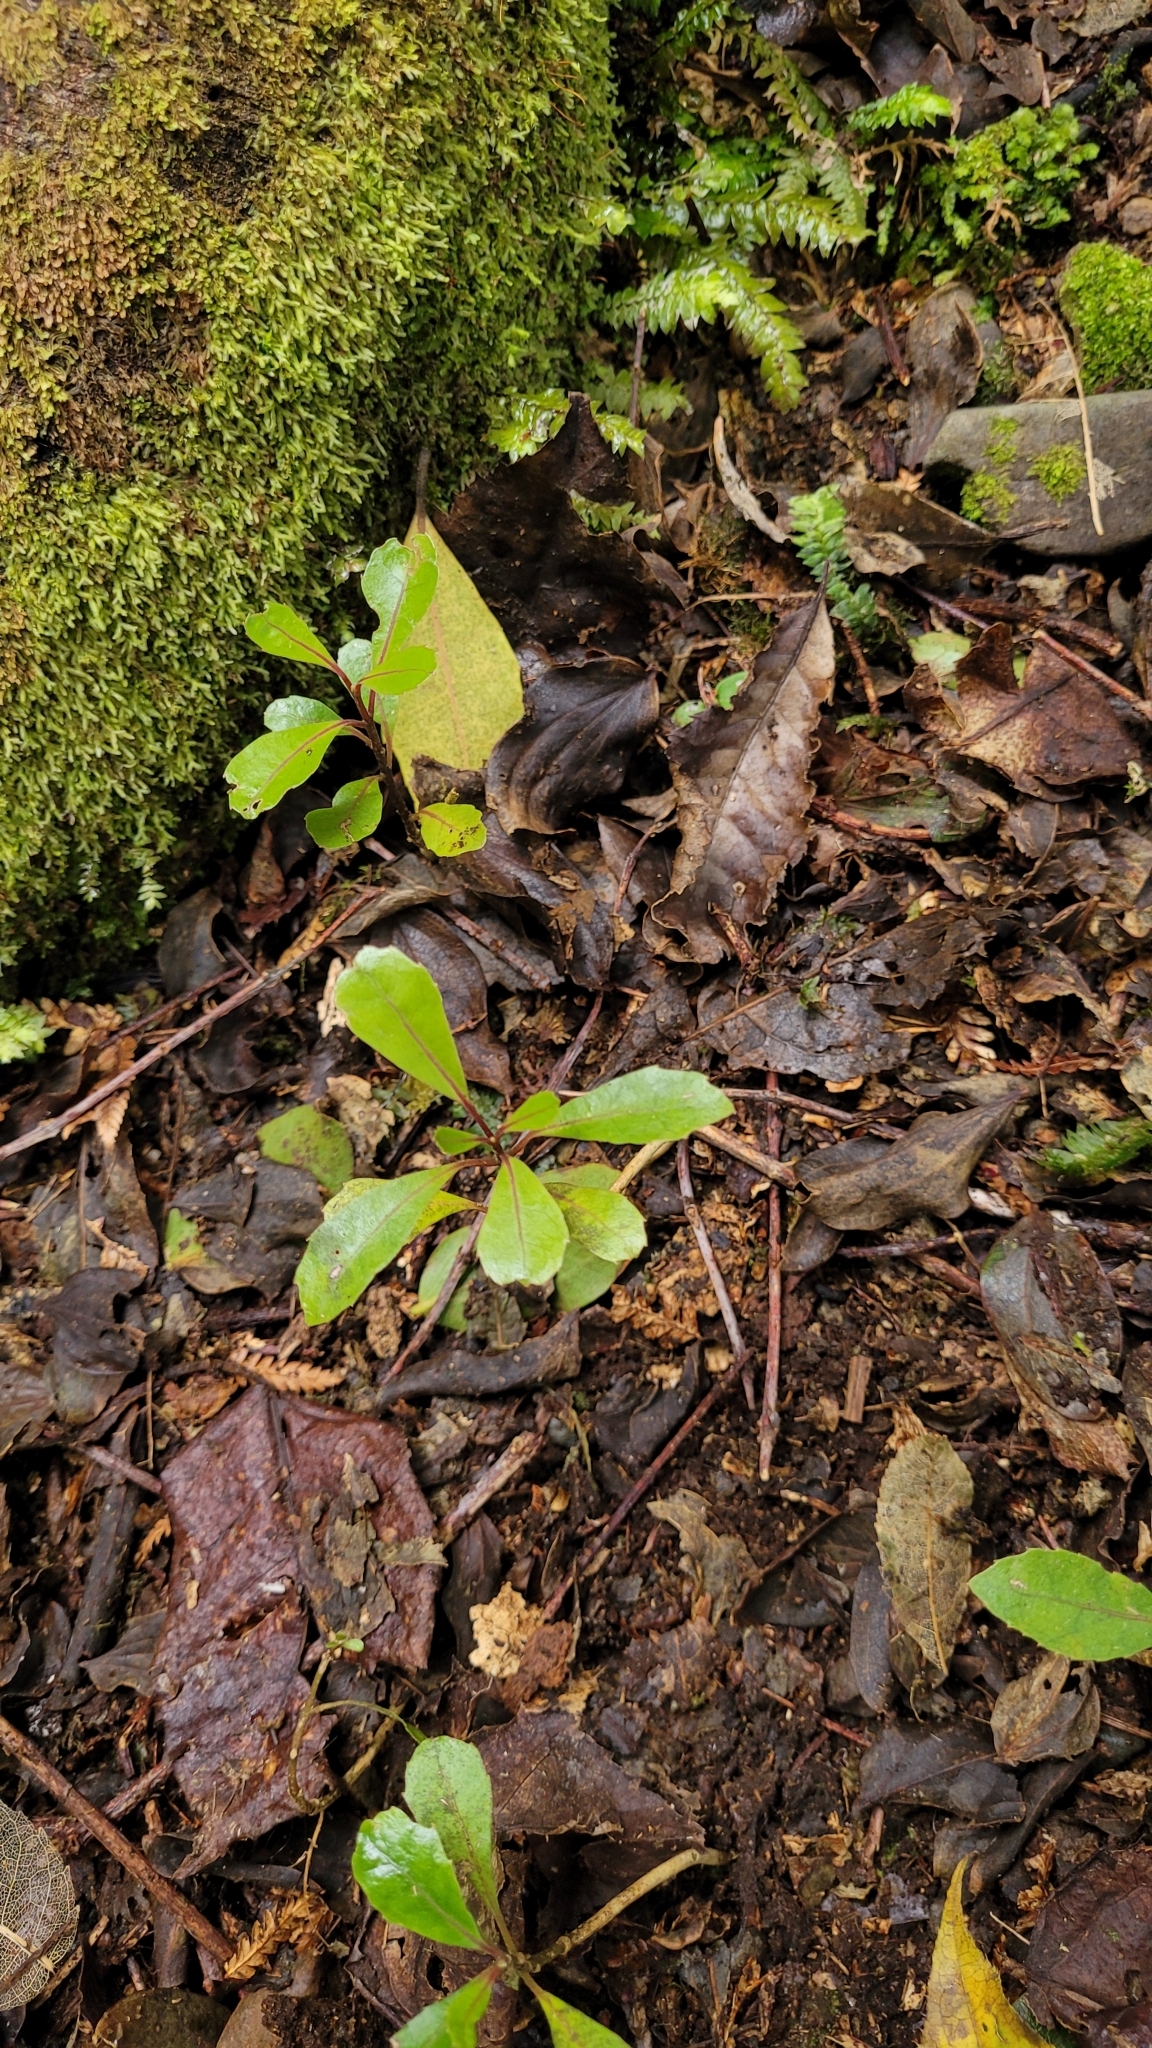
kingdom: Plantae
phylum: Tracheophyta
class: Magnoliopsida
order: Laurales
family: Monimiaceae
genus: Hedycarya
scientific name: Hedycarya arborea
